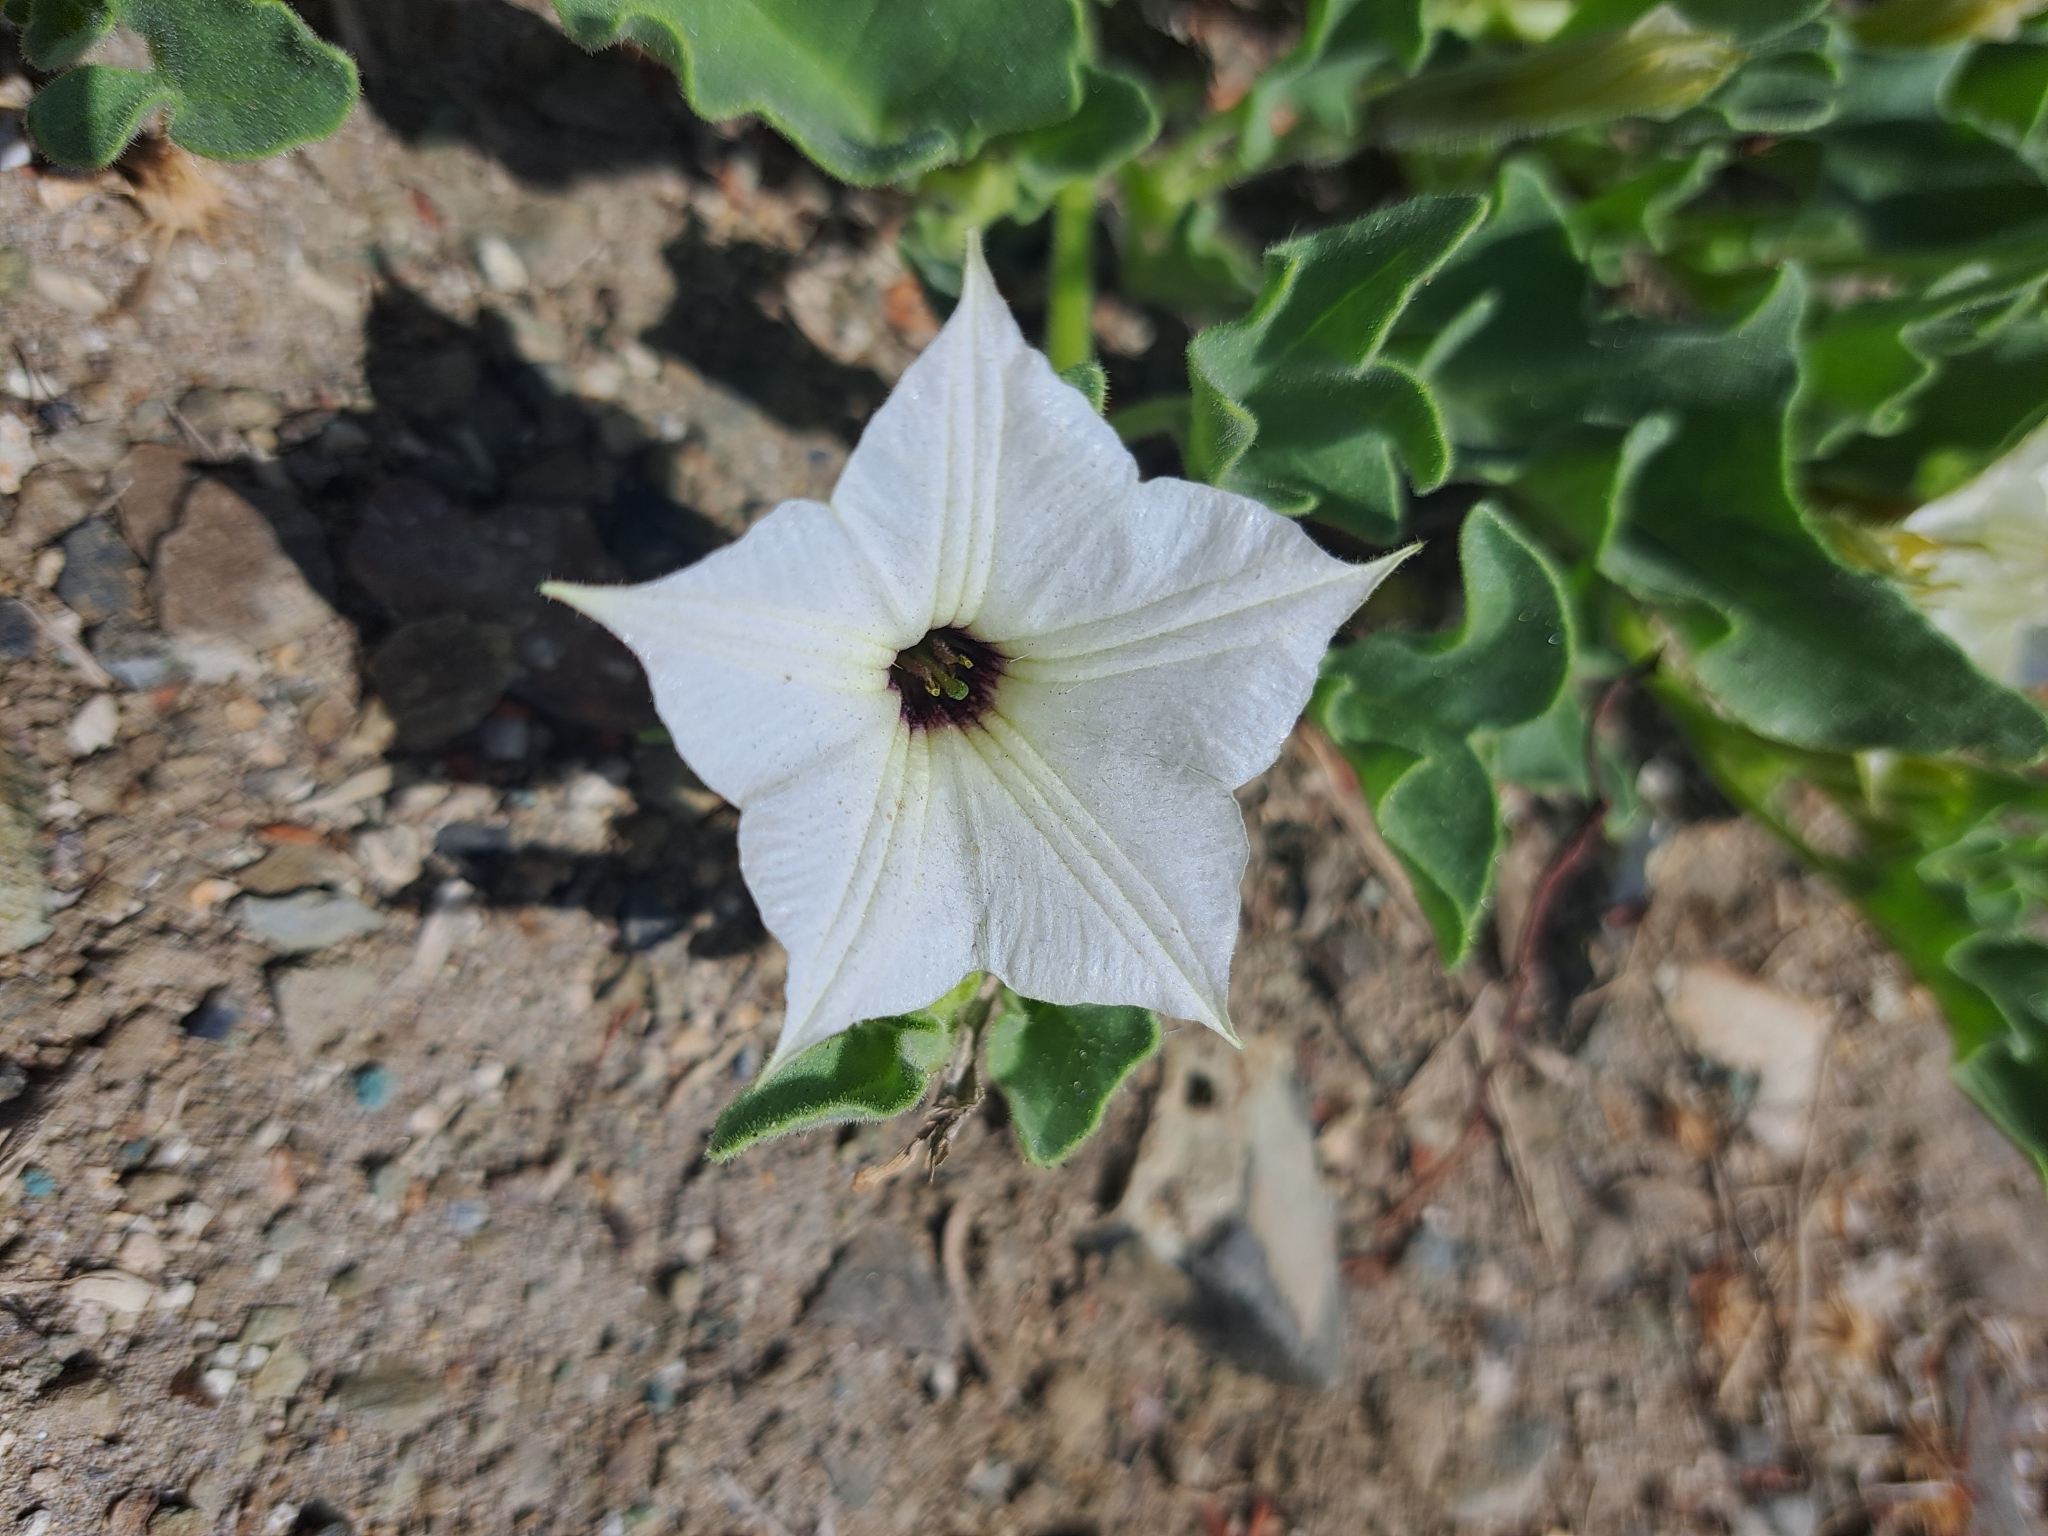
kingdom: Plantae
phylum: Tracheophyta
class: Magnoliopsida
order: Solanales
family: Solanaceae
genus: Exodeconus
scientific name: Exodeconus maritima
